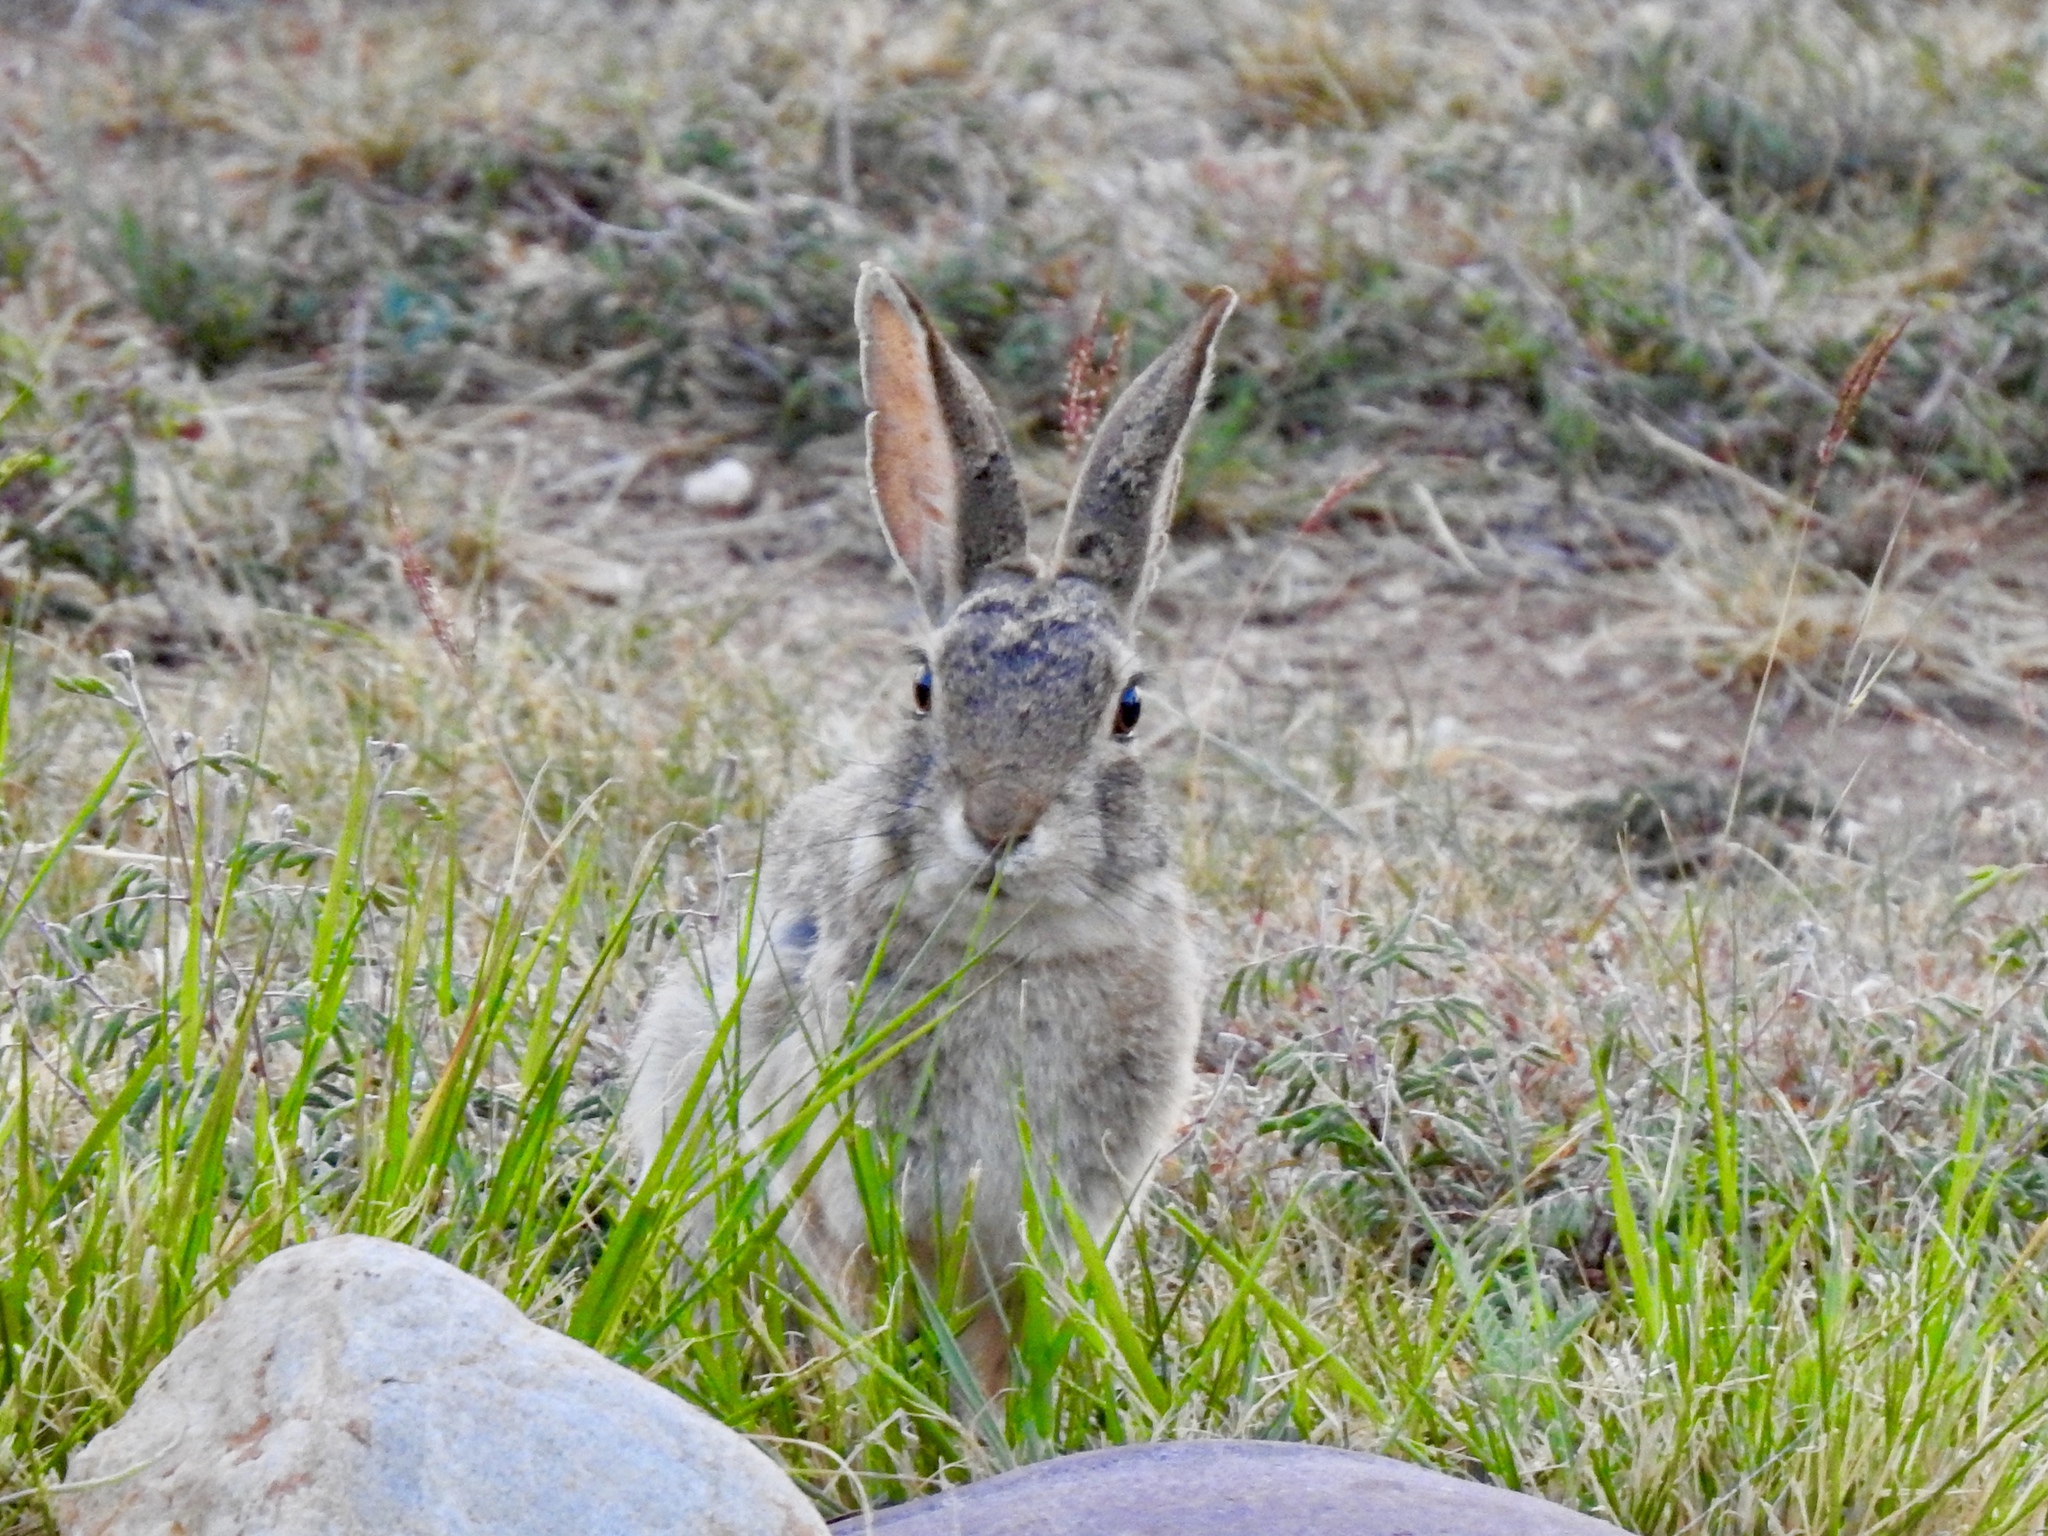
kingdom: Animalia
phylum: Chordata
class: Mammalia
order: Lagomorpha
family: Leporidae
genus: Sylvilagus
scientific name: Sylvilagus audubonii
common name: Desert cottontail
